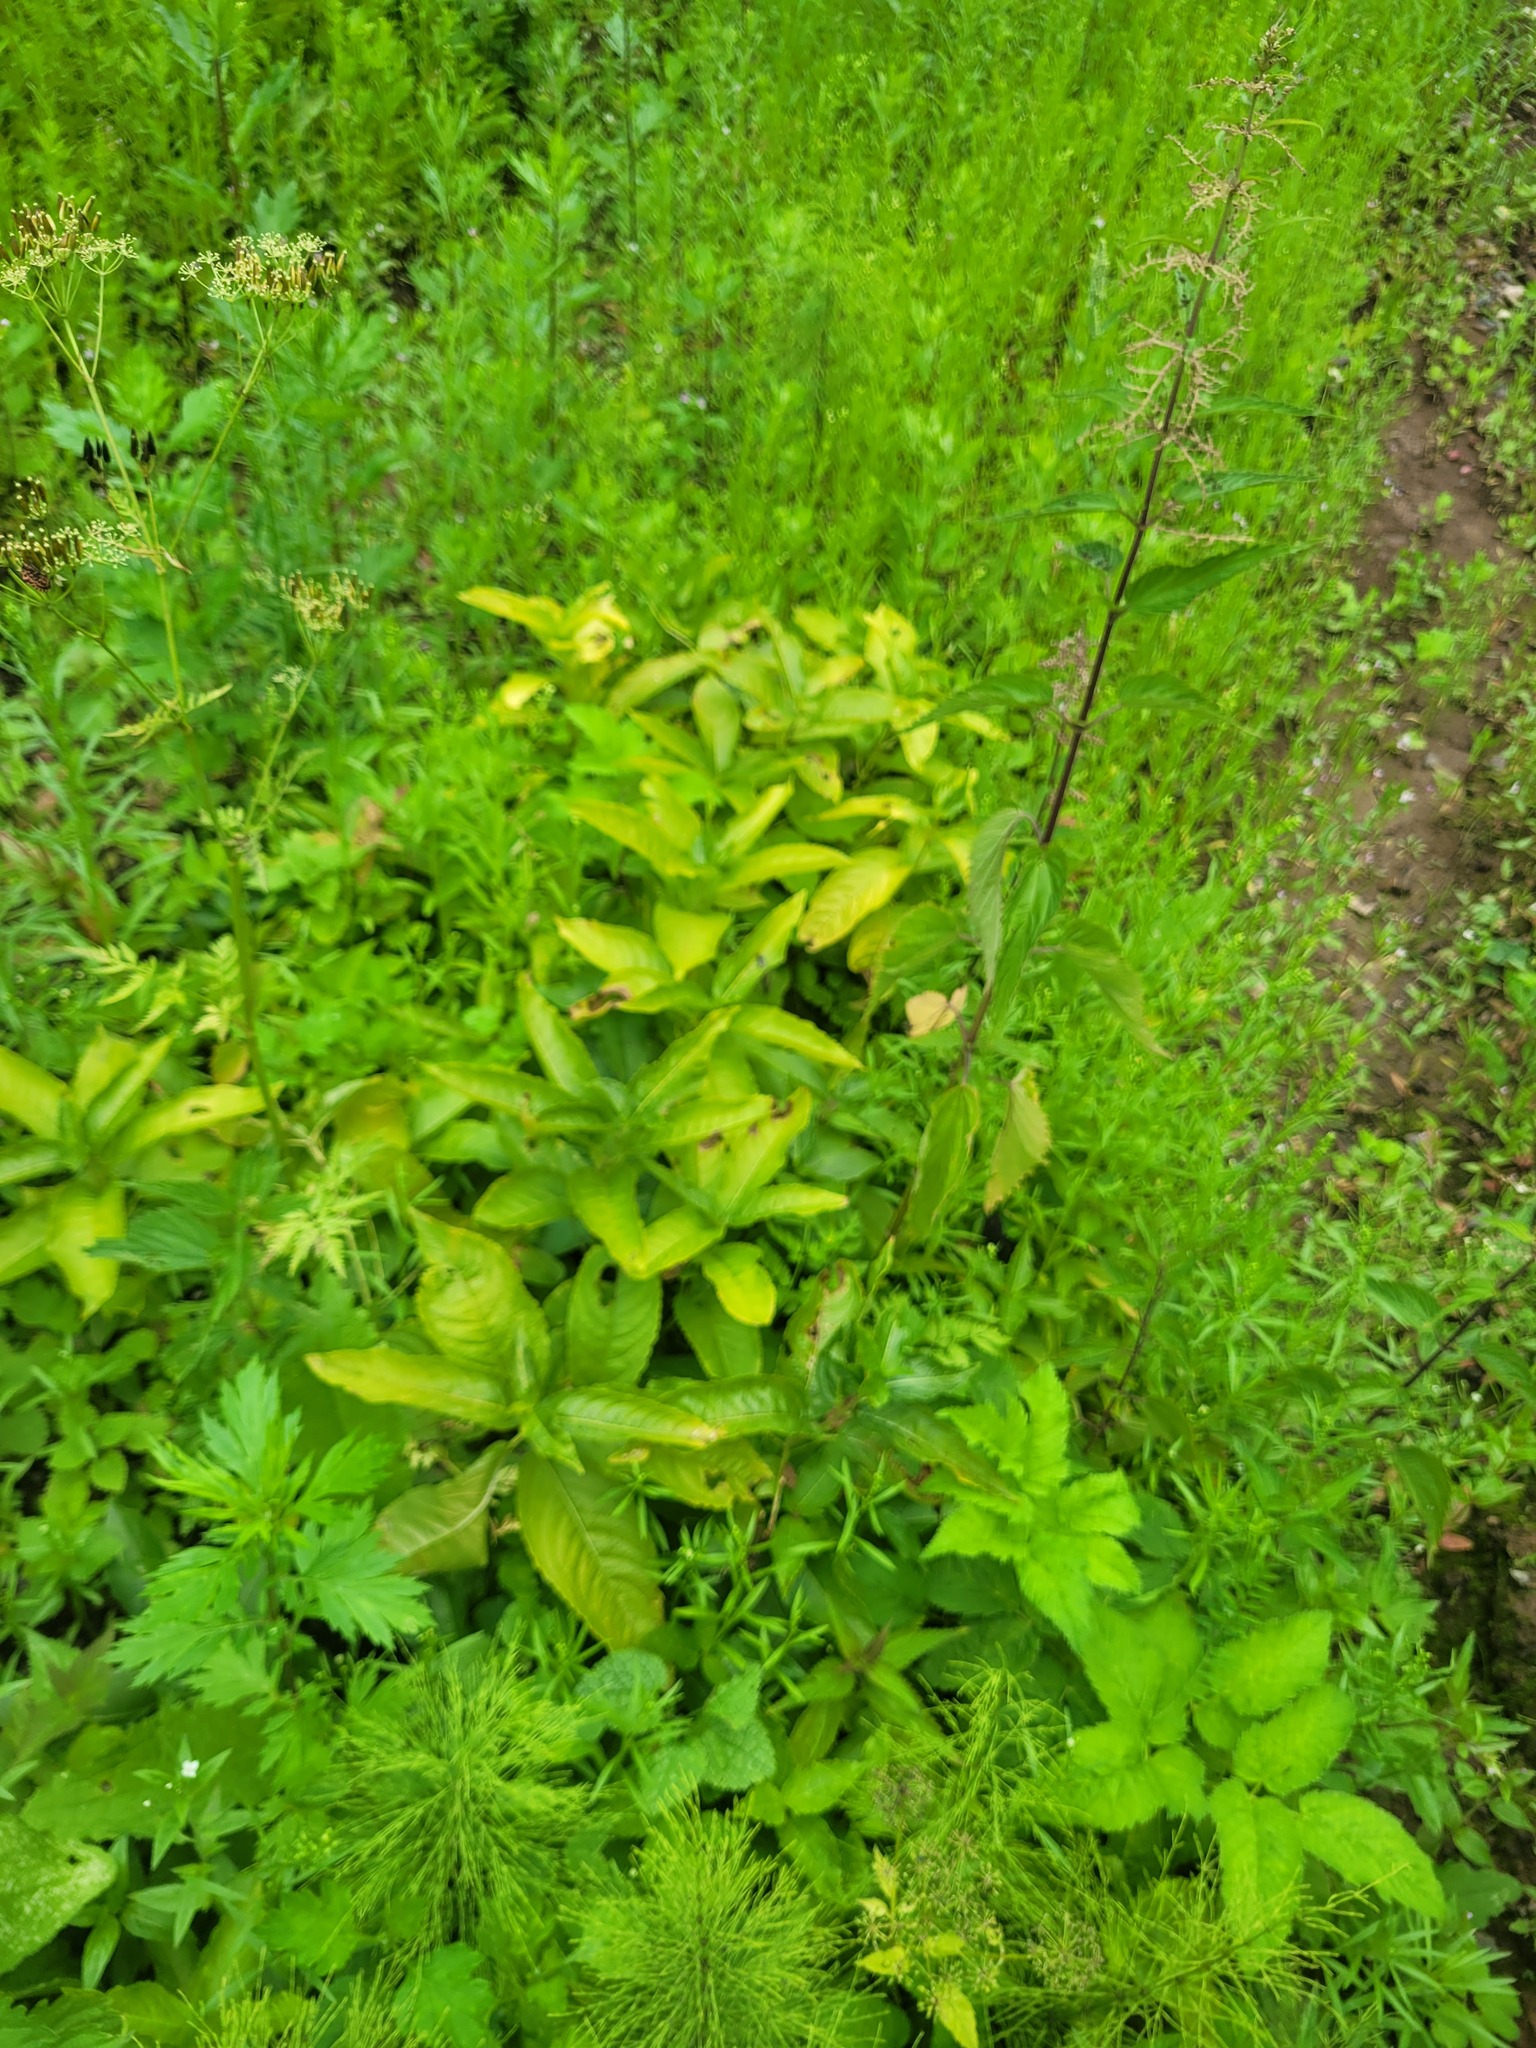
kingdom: Plantae
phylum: Tracheophyta
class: Magnoliopsida
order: Malpighiales
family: Euphorbiaceae
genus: Mercurialis
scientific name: Mercurialis perennis
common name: Dog mercury
